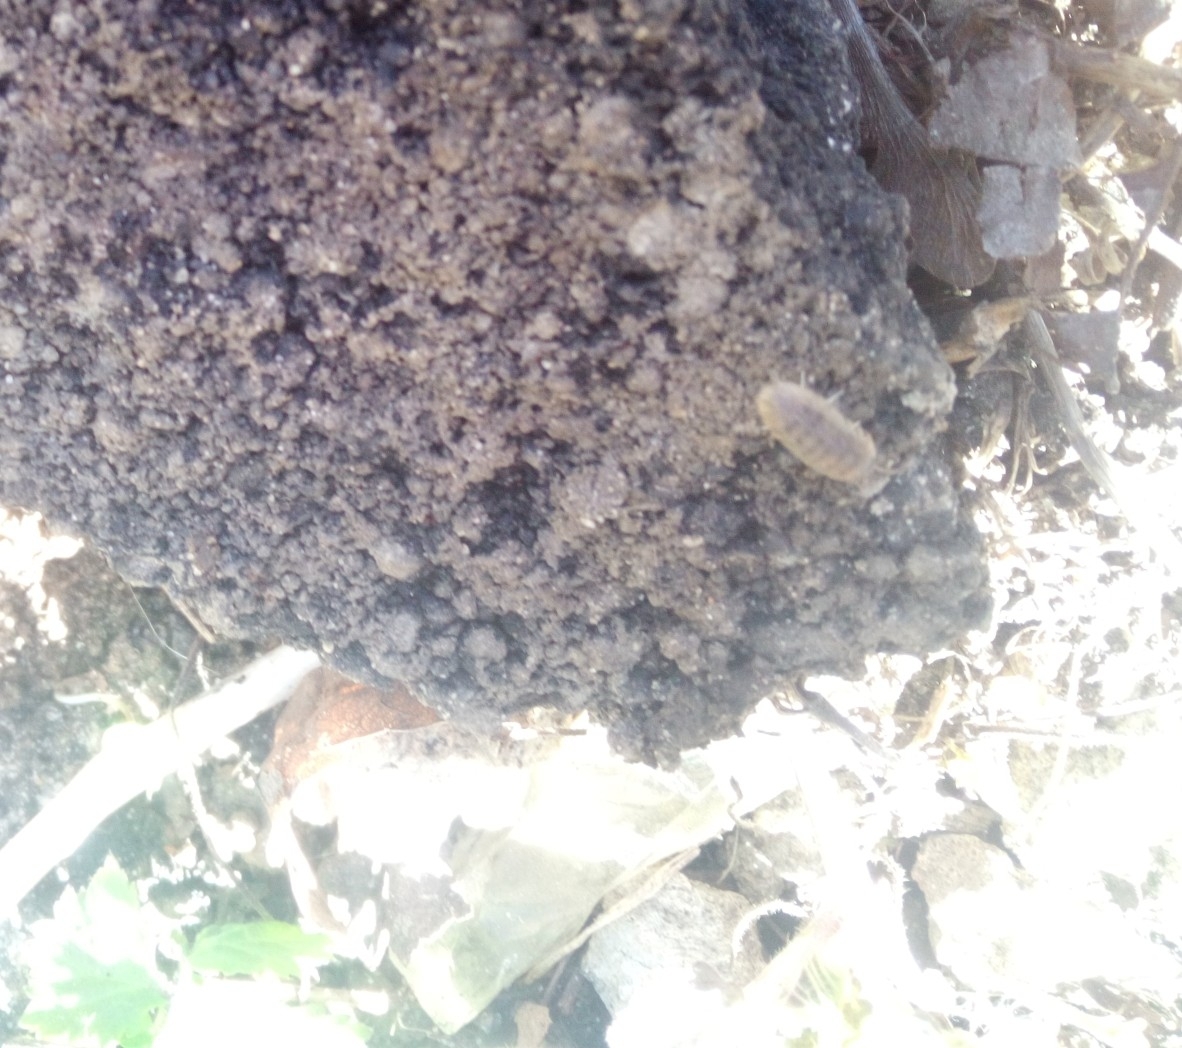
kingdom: Animalia
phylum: Arthropoda
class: Malacostraca
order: Isopoda
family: Armadillidiidae
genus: Armadillidium
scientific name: Armadillidium versicolor
